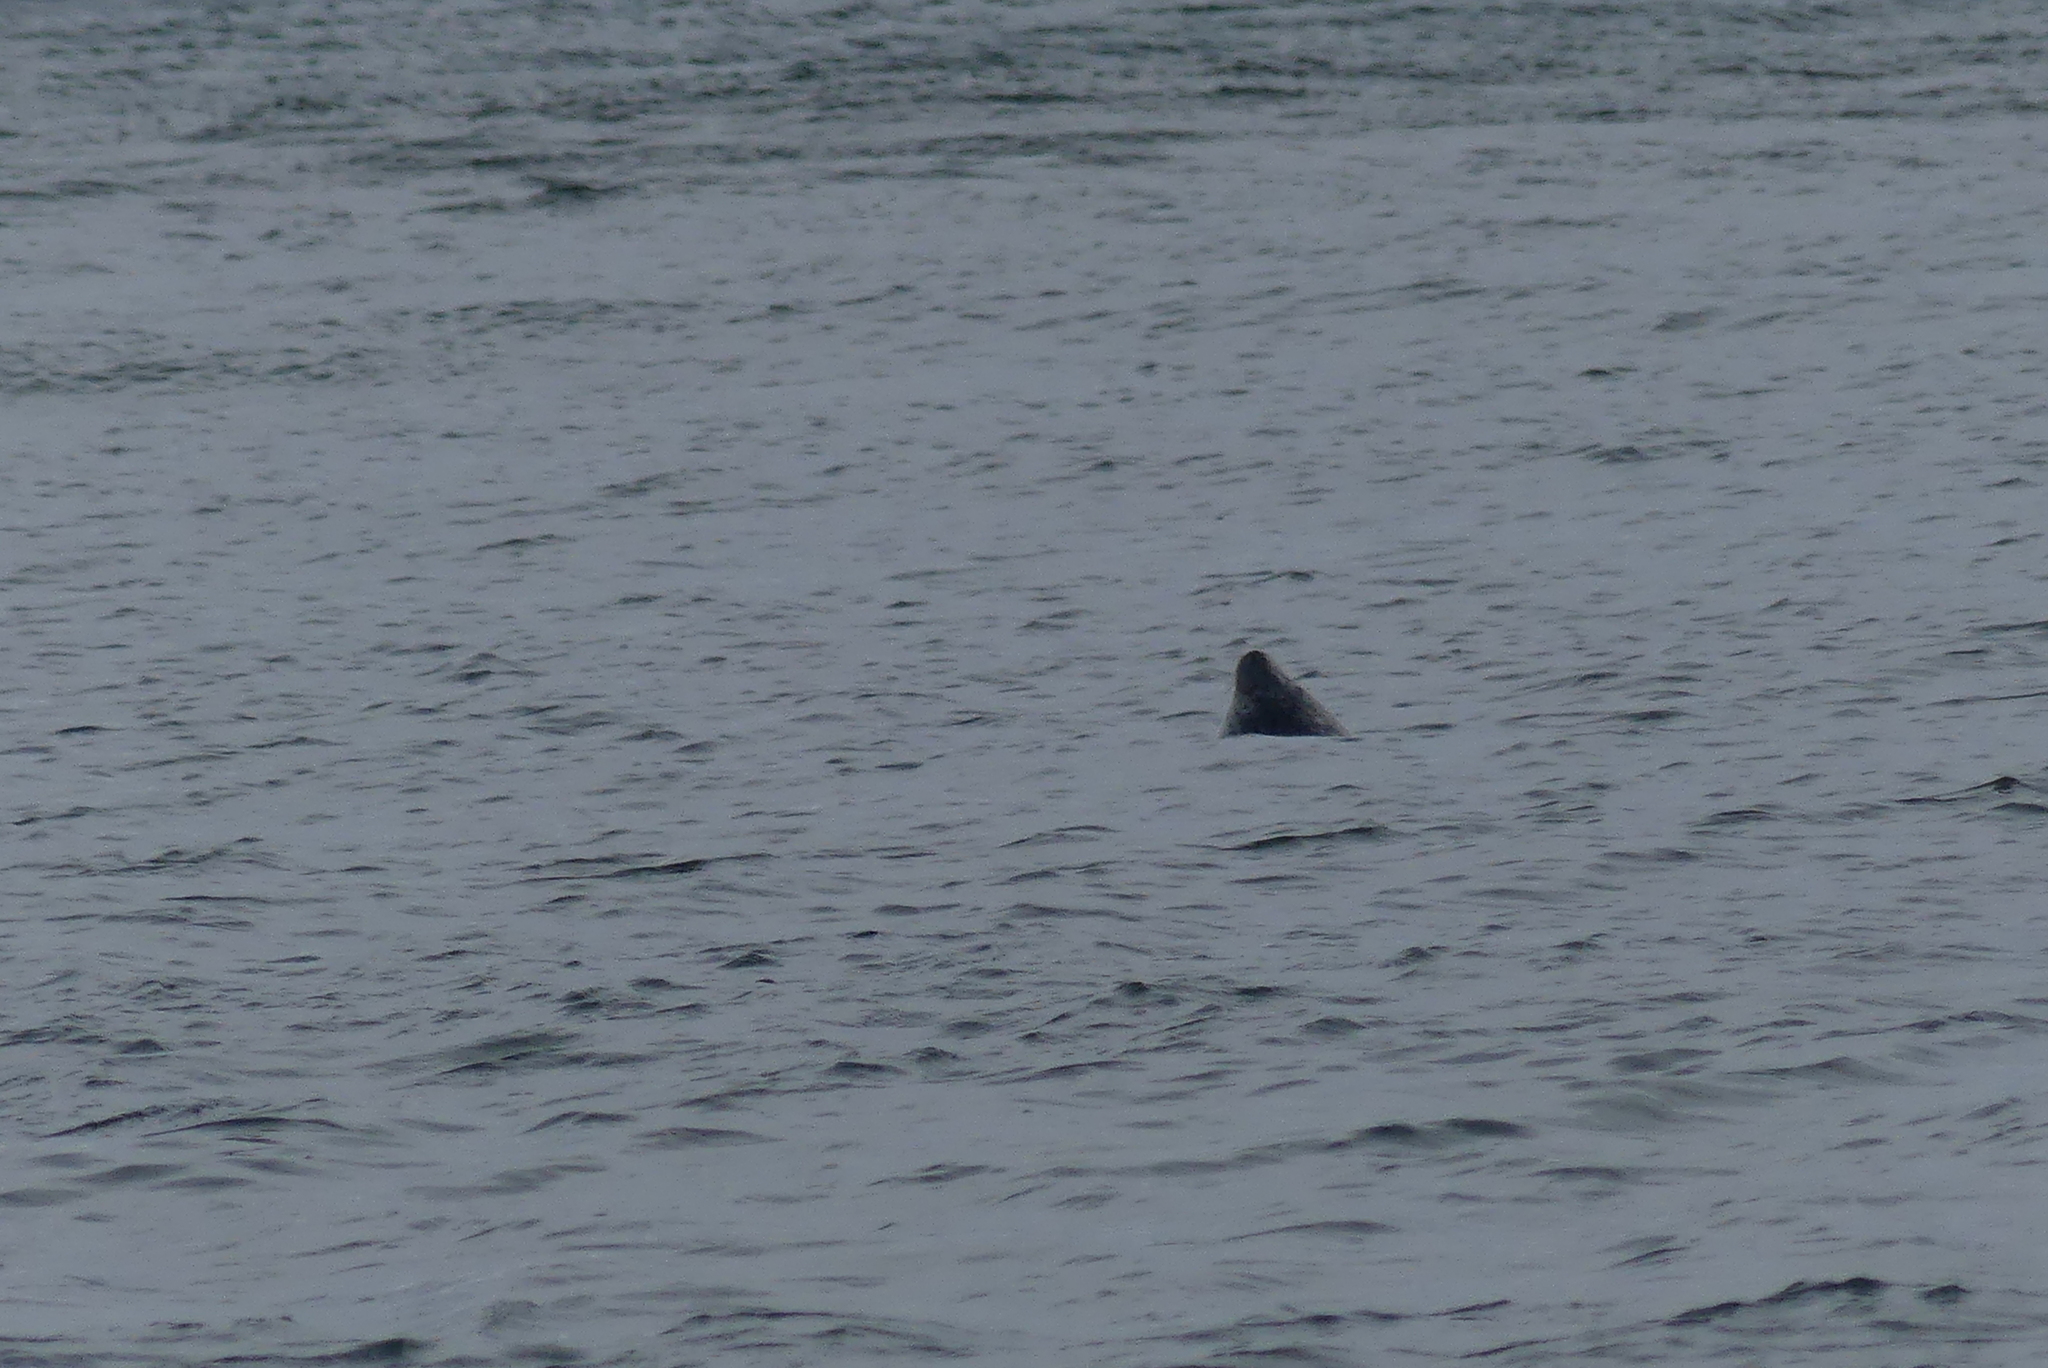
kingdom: Animalia
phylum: Chordata
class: Mammalia
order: Carnivora
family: Phocidae
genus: Phoca
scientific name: Phoca vitulina
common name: Harbor seal
